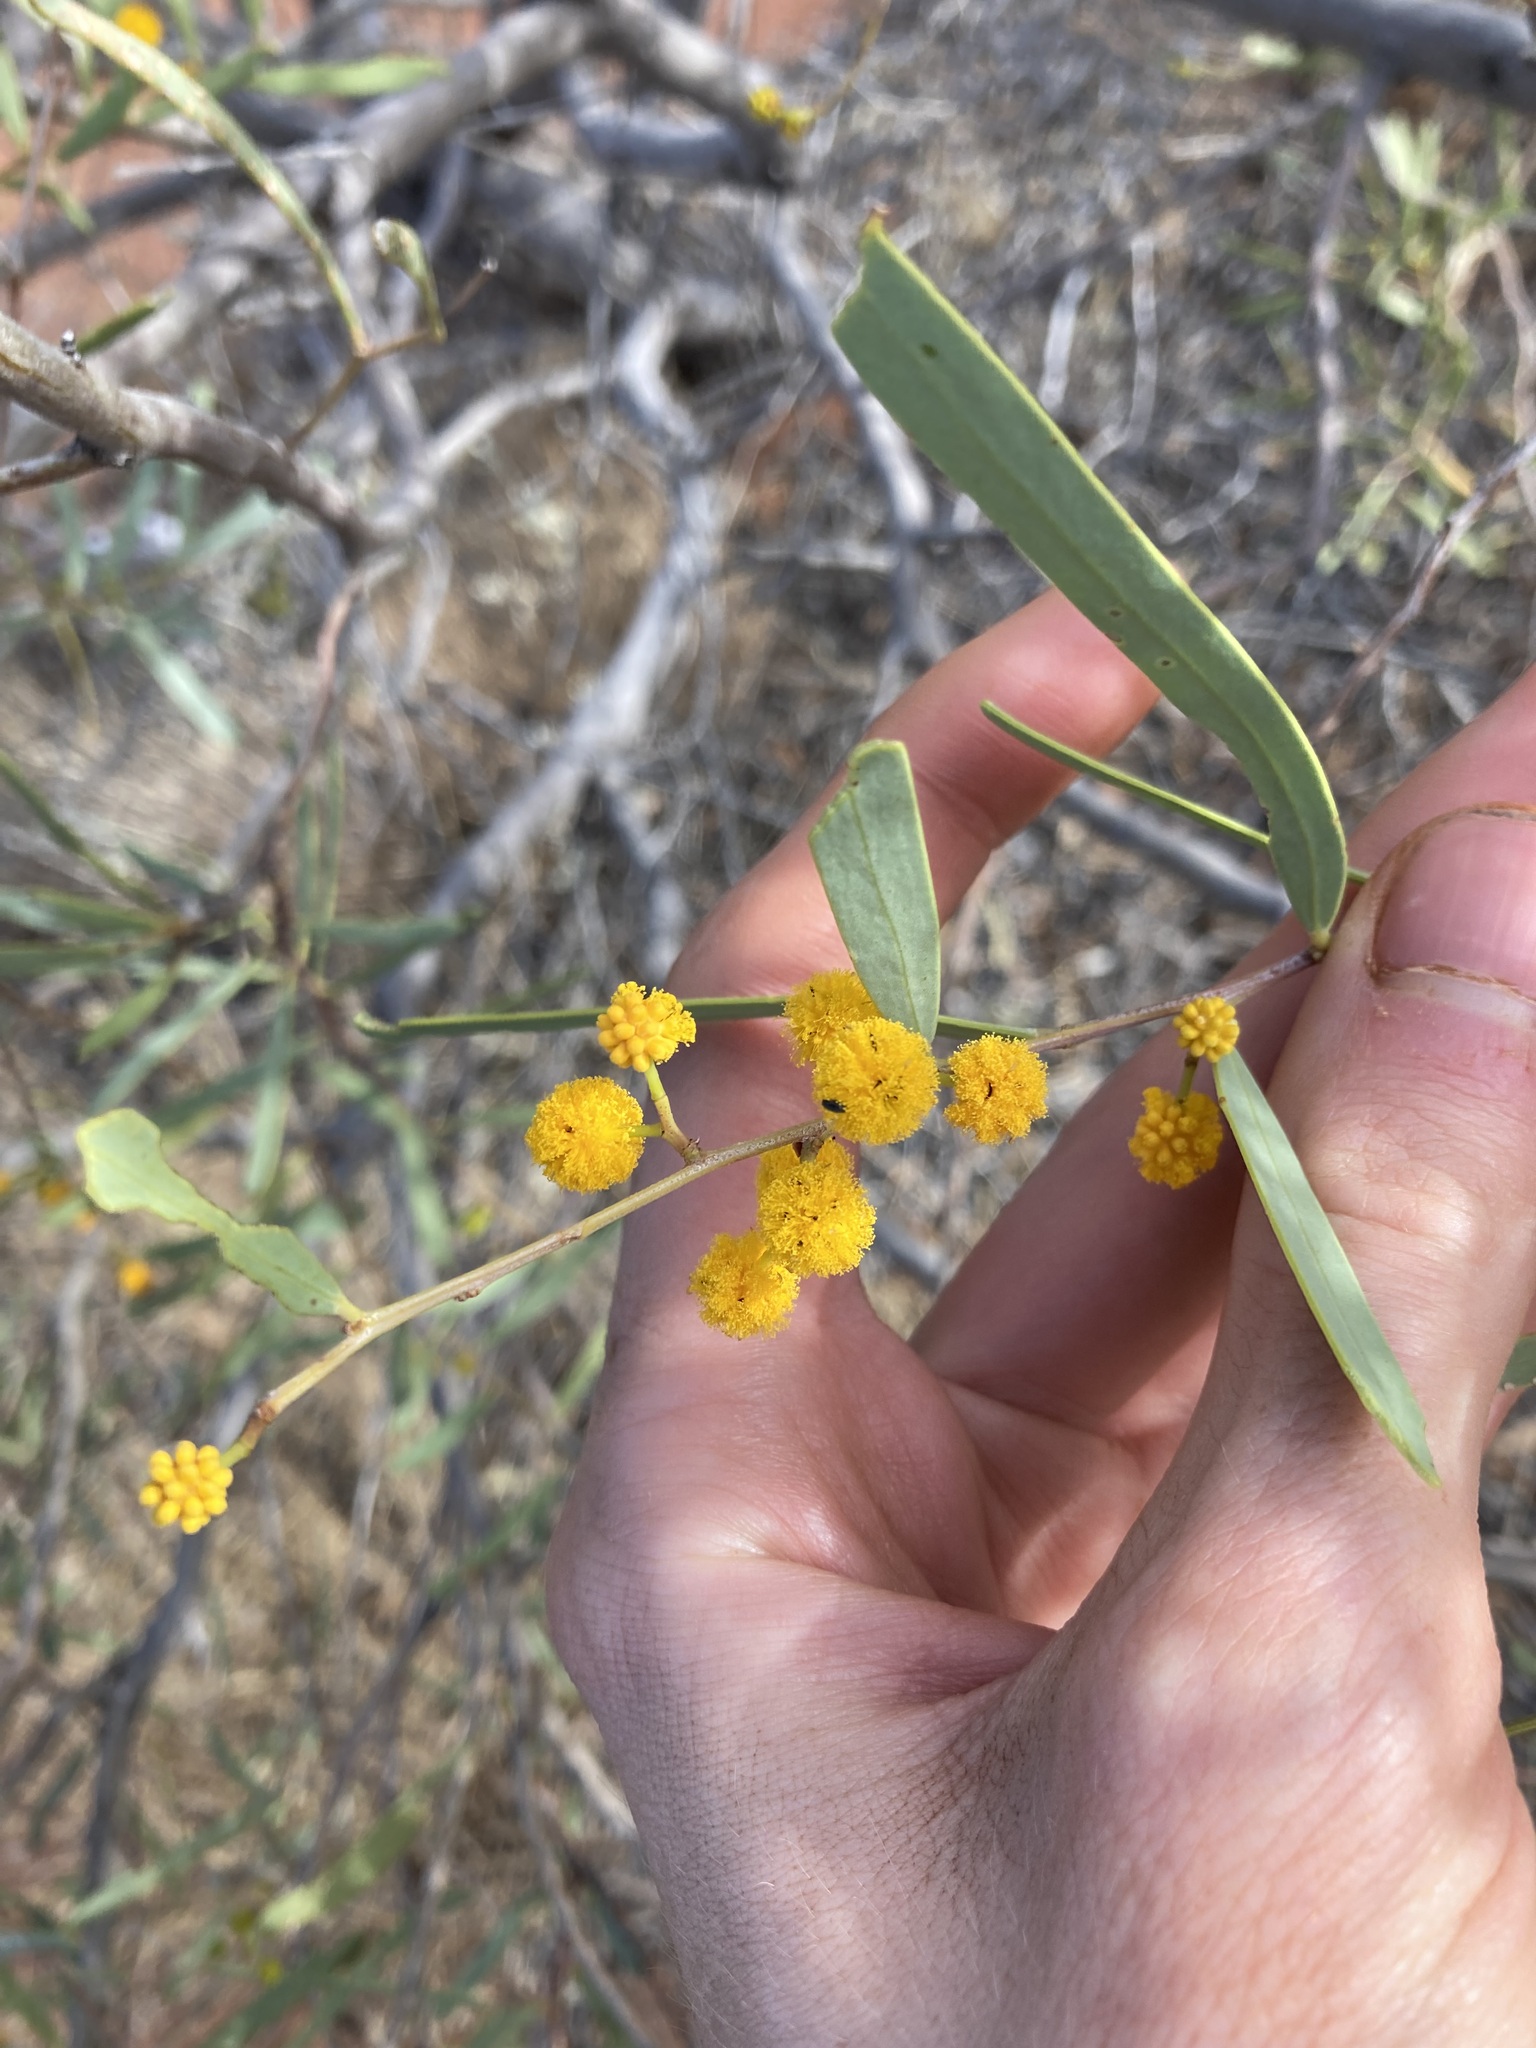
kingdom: Plantae
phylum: Tracheophyta
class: Magnoliopsida
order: Fabales
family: Fabaceae
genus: Acacia
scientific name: Acacia ligulata
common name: Dune wattle
